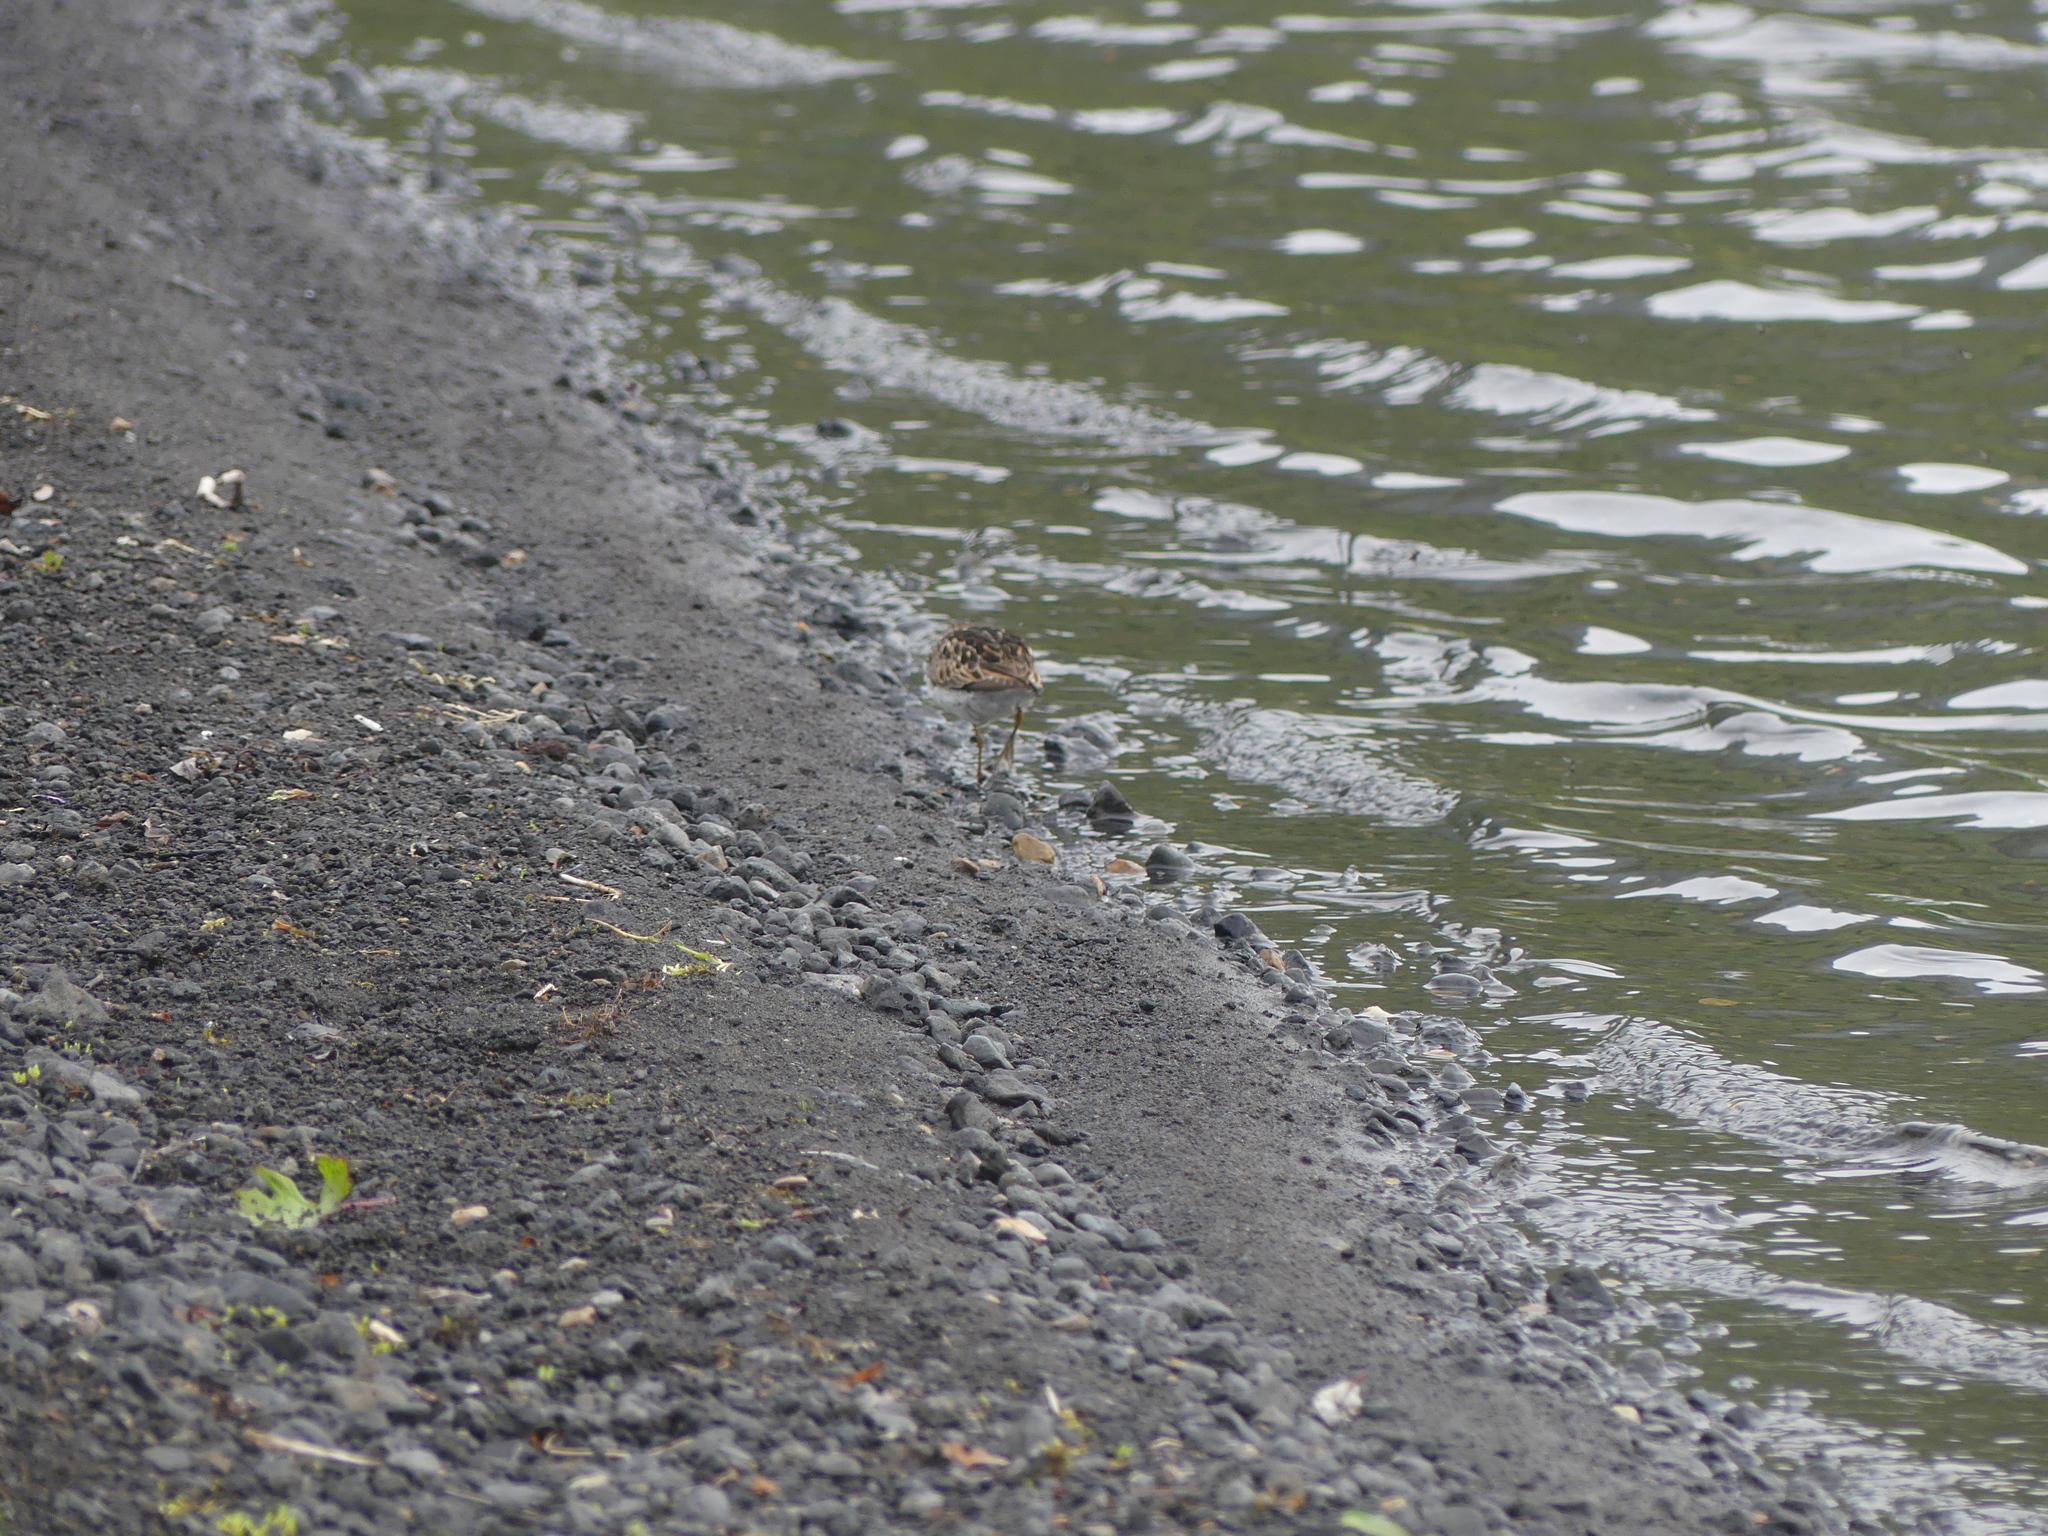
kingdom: Animalia
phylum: Chordata
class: Aves
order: Charadriiformes
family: Scolopacidae
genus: Calidris
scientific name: Calidris minutilla
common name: Least sandpiper
